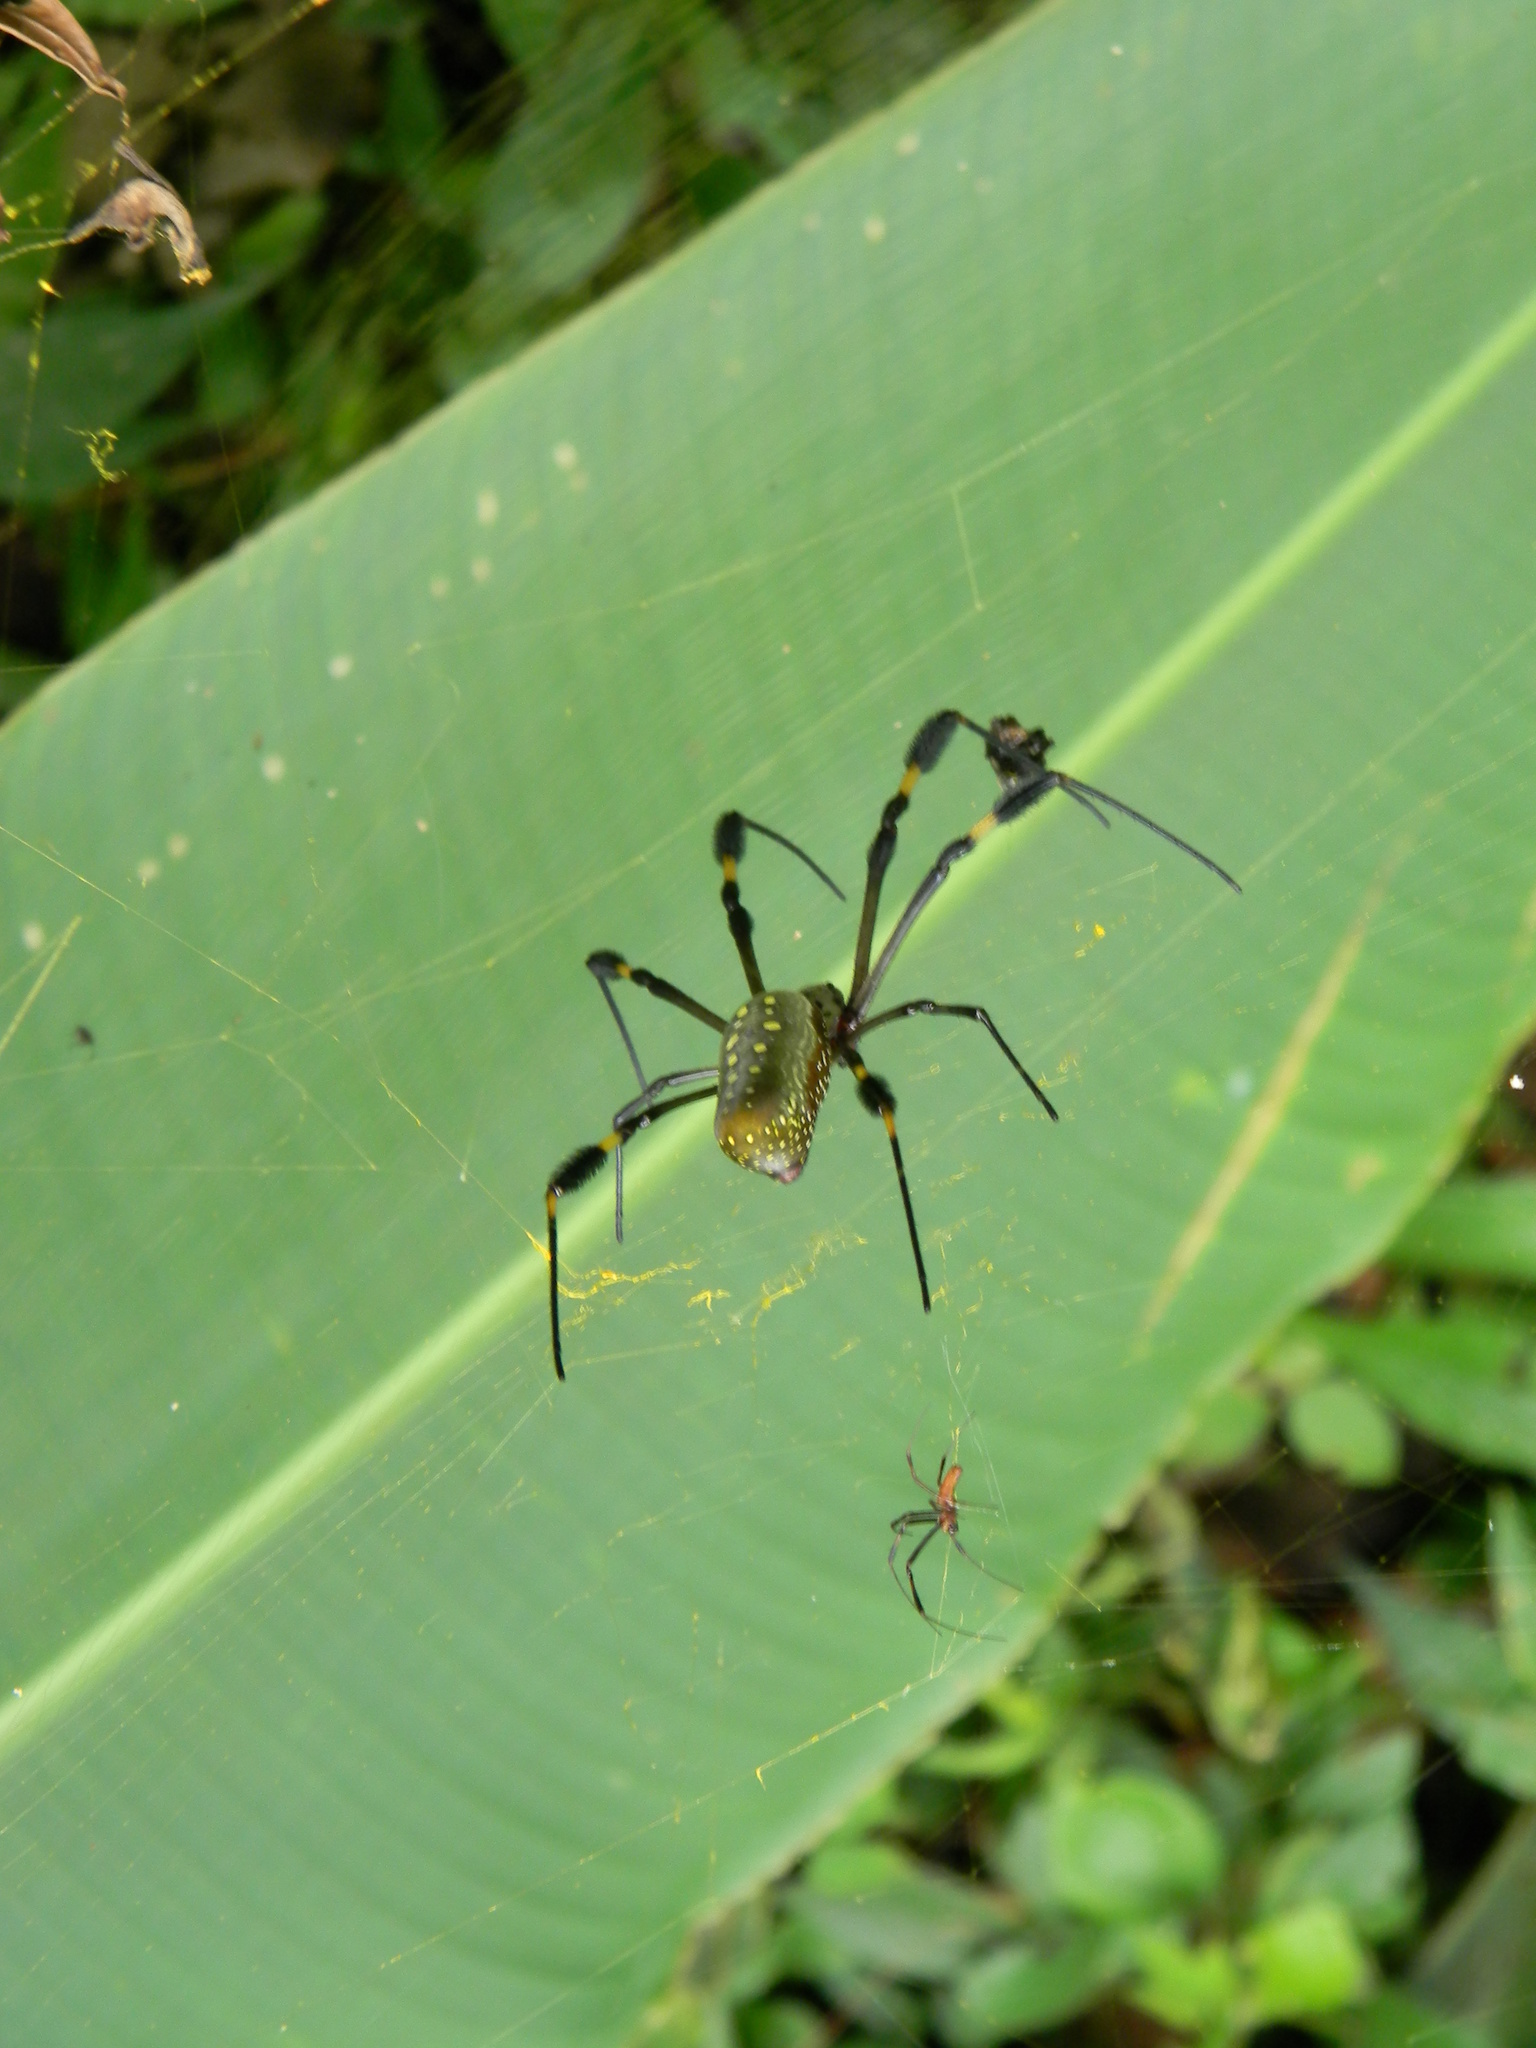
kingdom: Animalia
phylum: Arthropoda
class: Arachnida
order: Araneae
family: Araneidae
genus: Trichonephila
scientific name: Trichonephila clavipes
